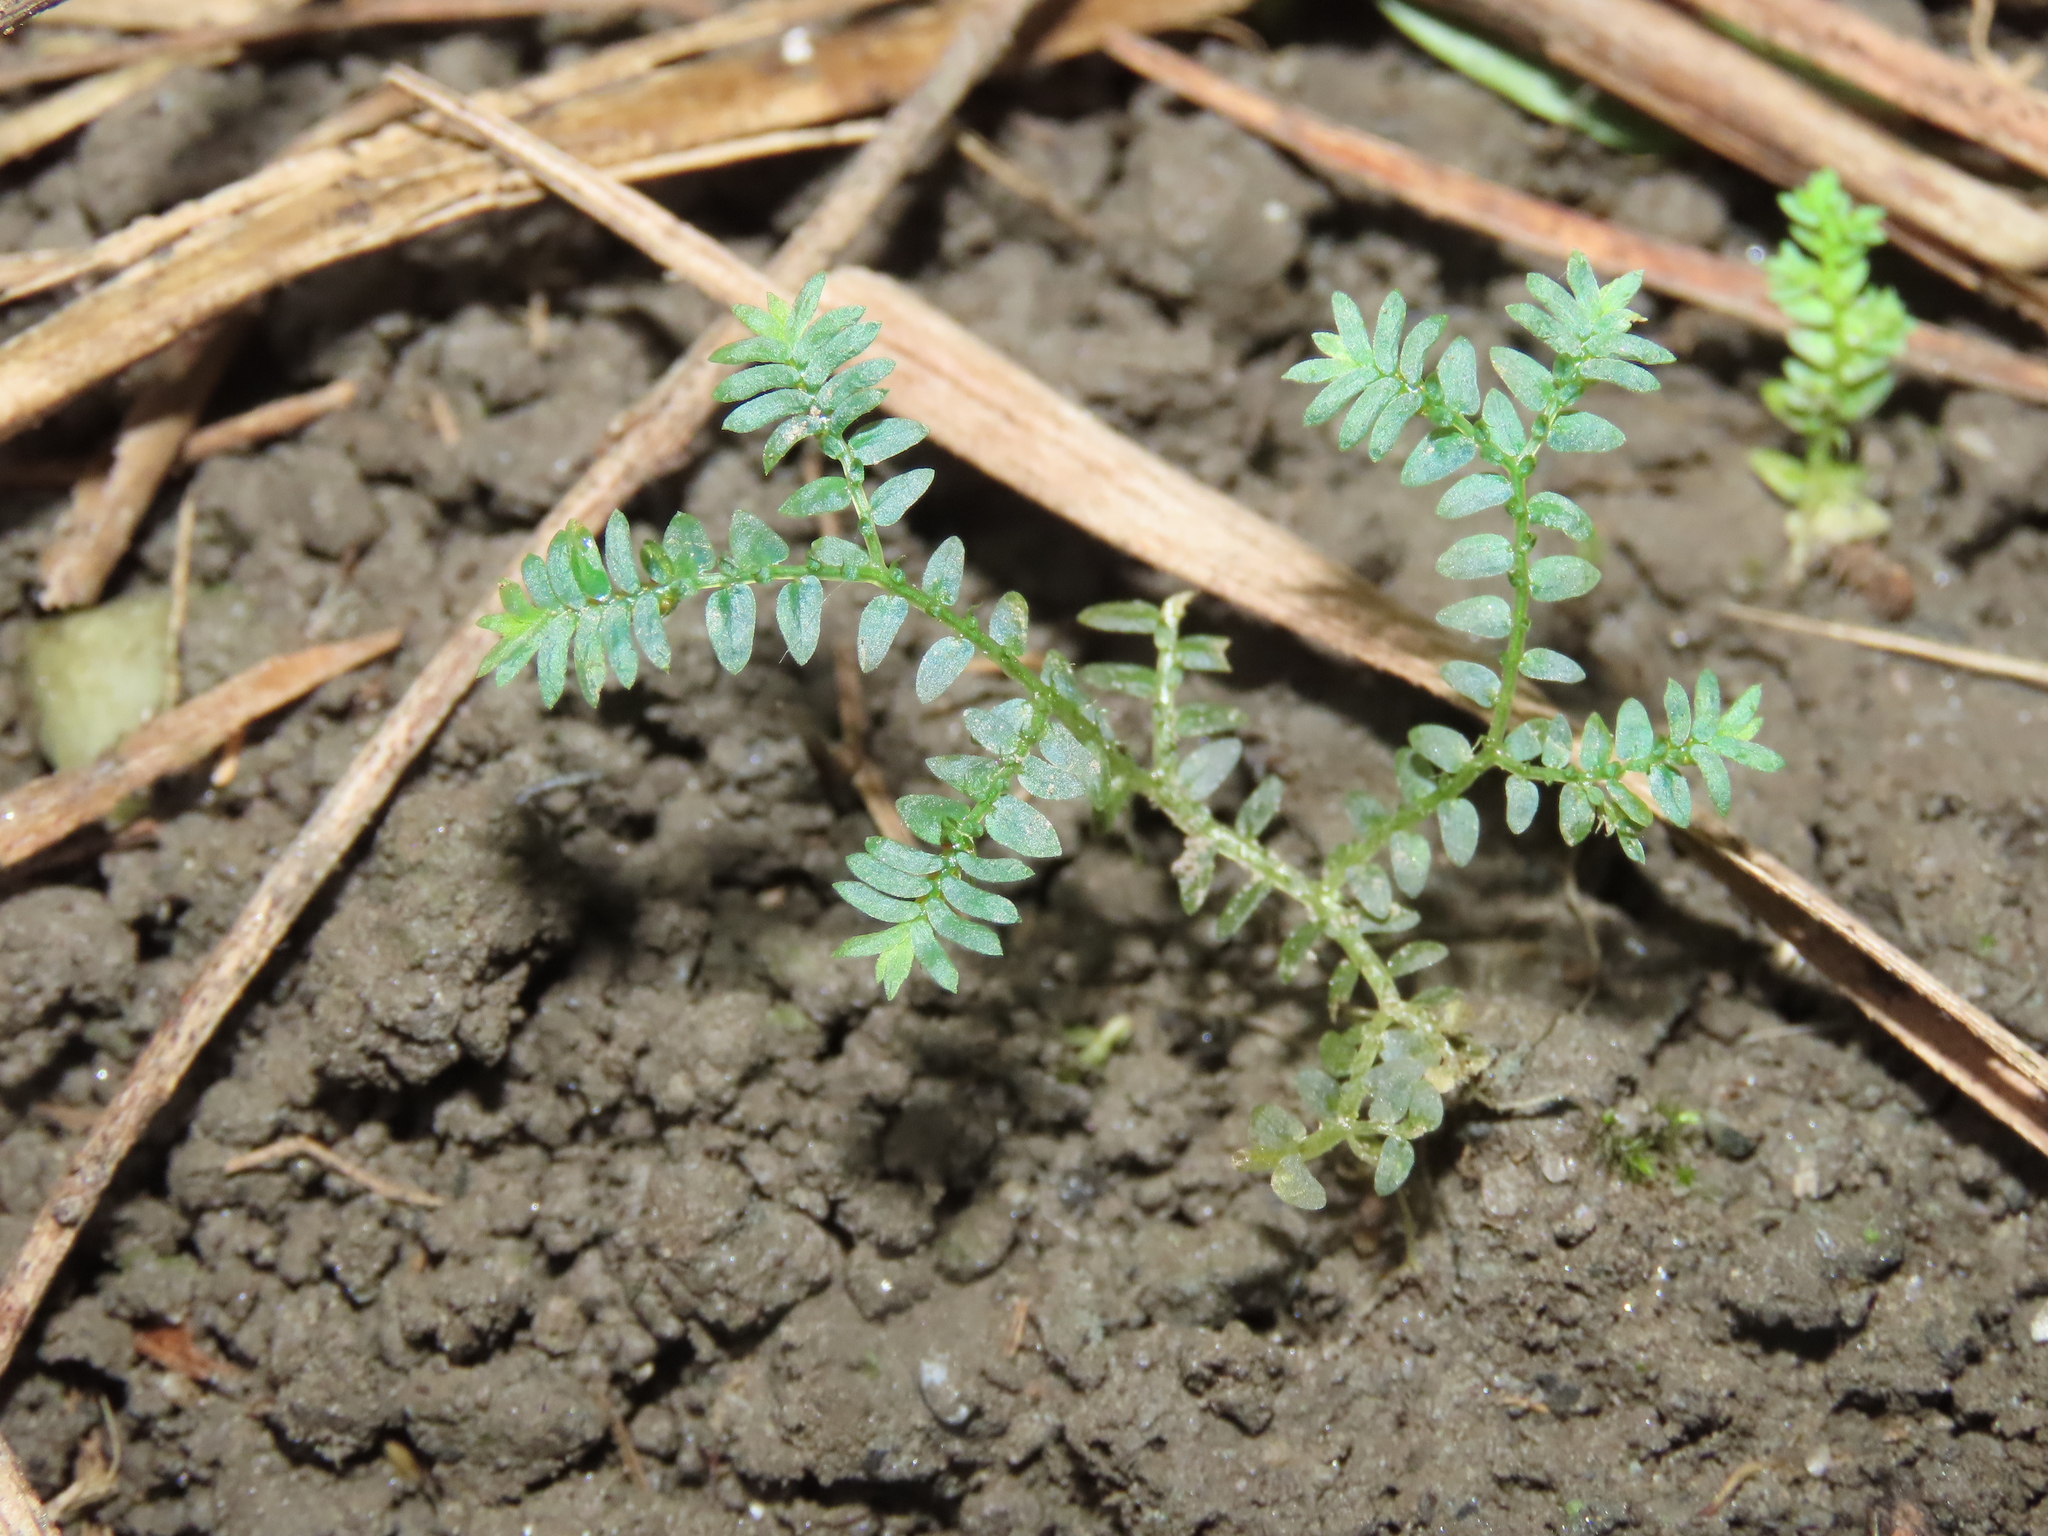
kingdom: Plantae
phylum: Tracheophyta
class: Lycopodiopsida
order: Selaginellales
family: Selaginellaceae
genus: Selaginella
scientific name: Selaginella aristata
